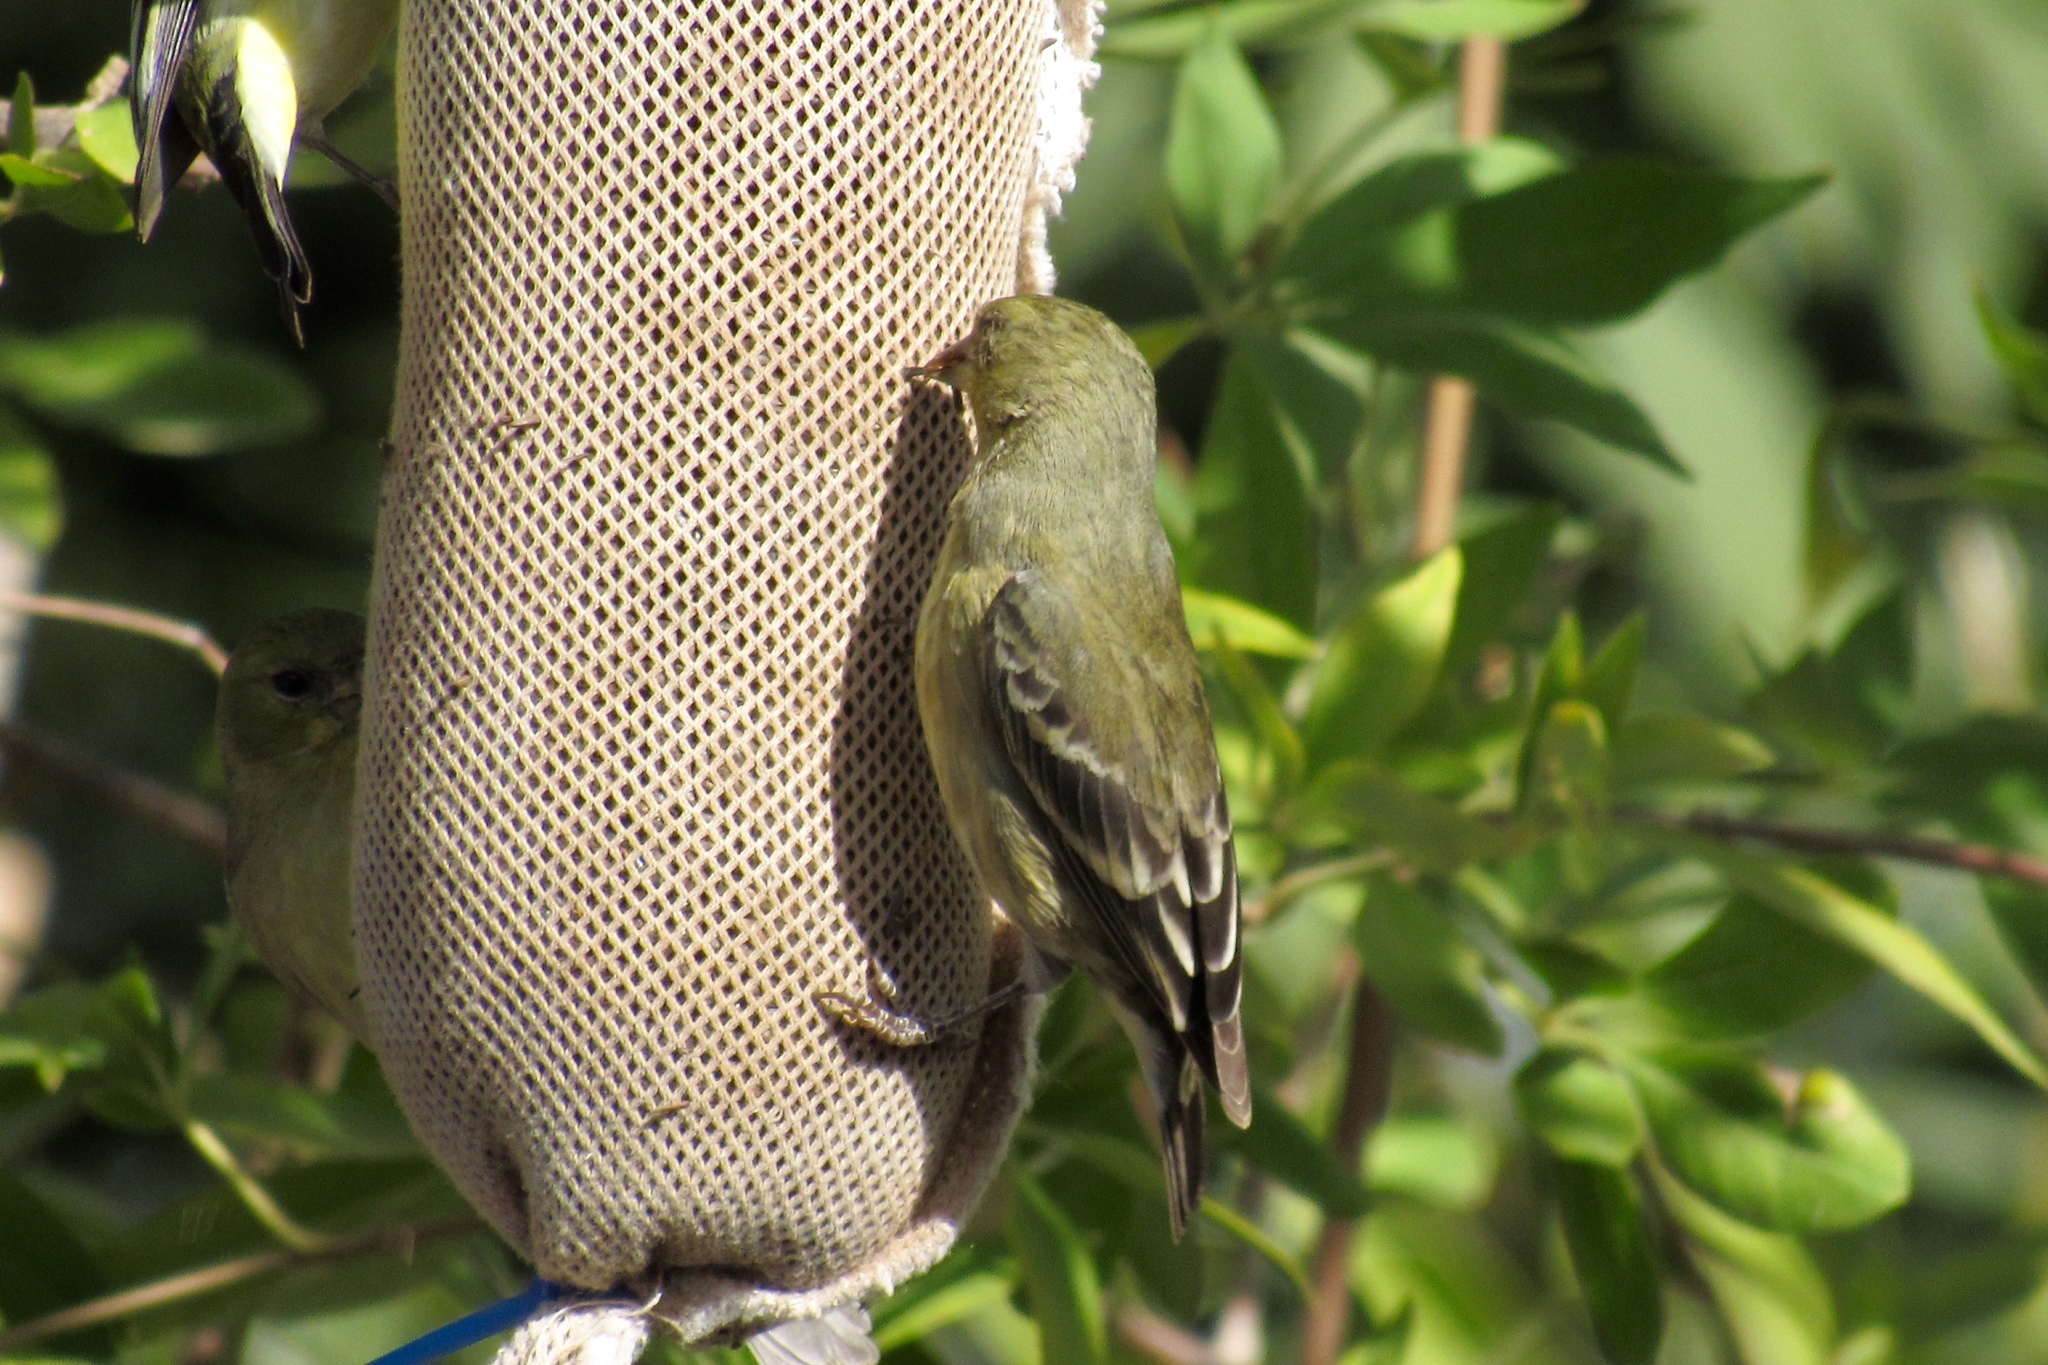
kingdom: Animalia
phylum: Chordata
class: Aves
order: Passeriformes
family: Fringillidae
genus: Spinus
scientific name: Spinus psaltria
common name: Lesser goldfinch
